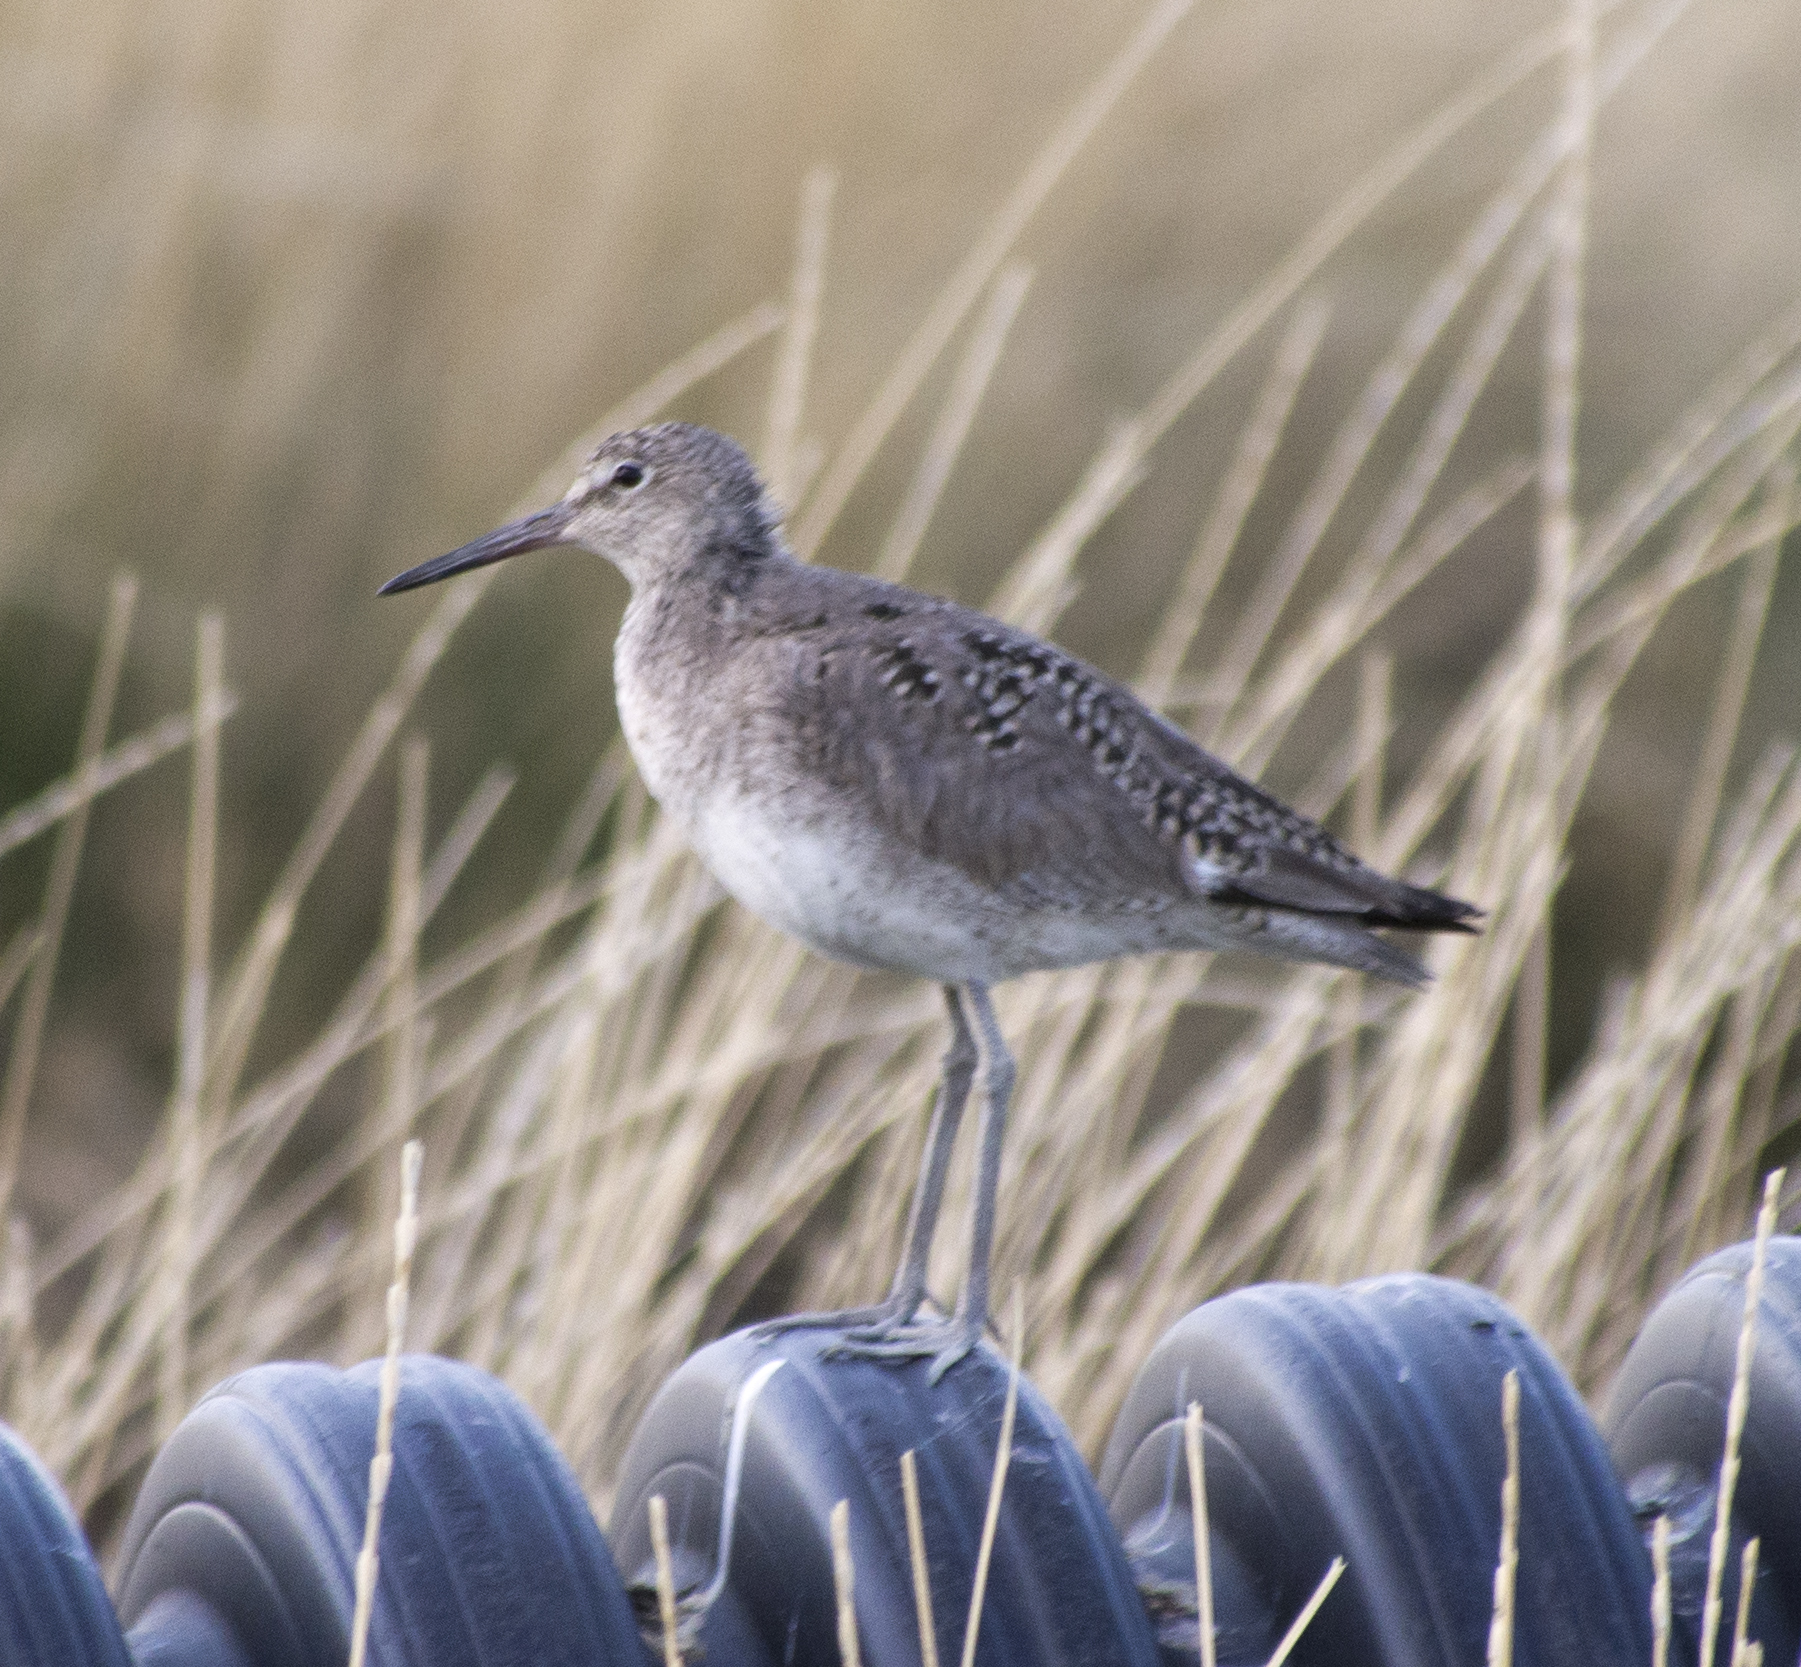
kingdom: Animalia
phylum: Chordata
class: Aves
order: Charadriiformes
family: Scolopacidae
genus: Tringa
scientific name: Tringa semipalmata
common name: Willet
